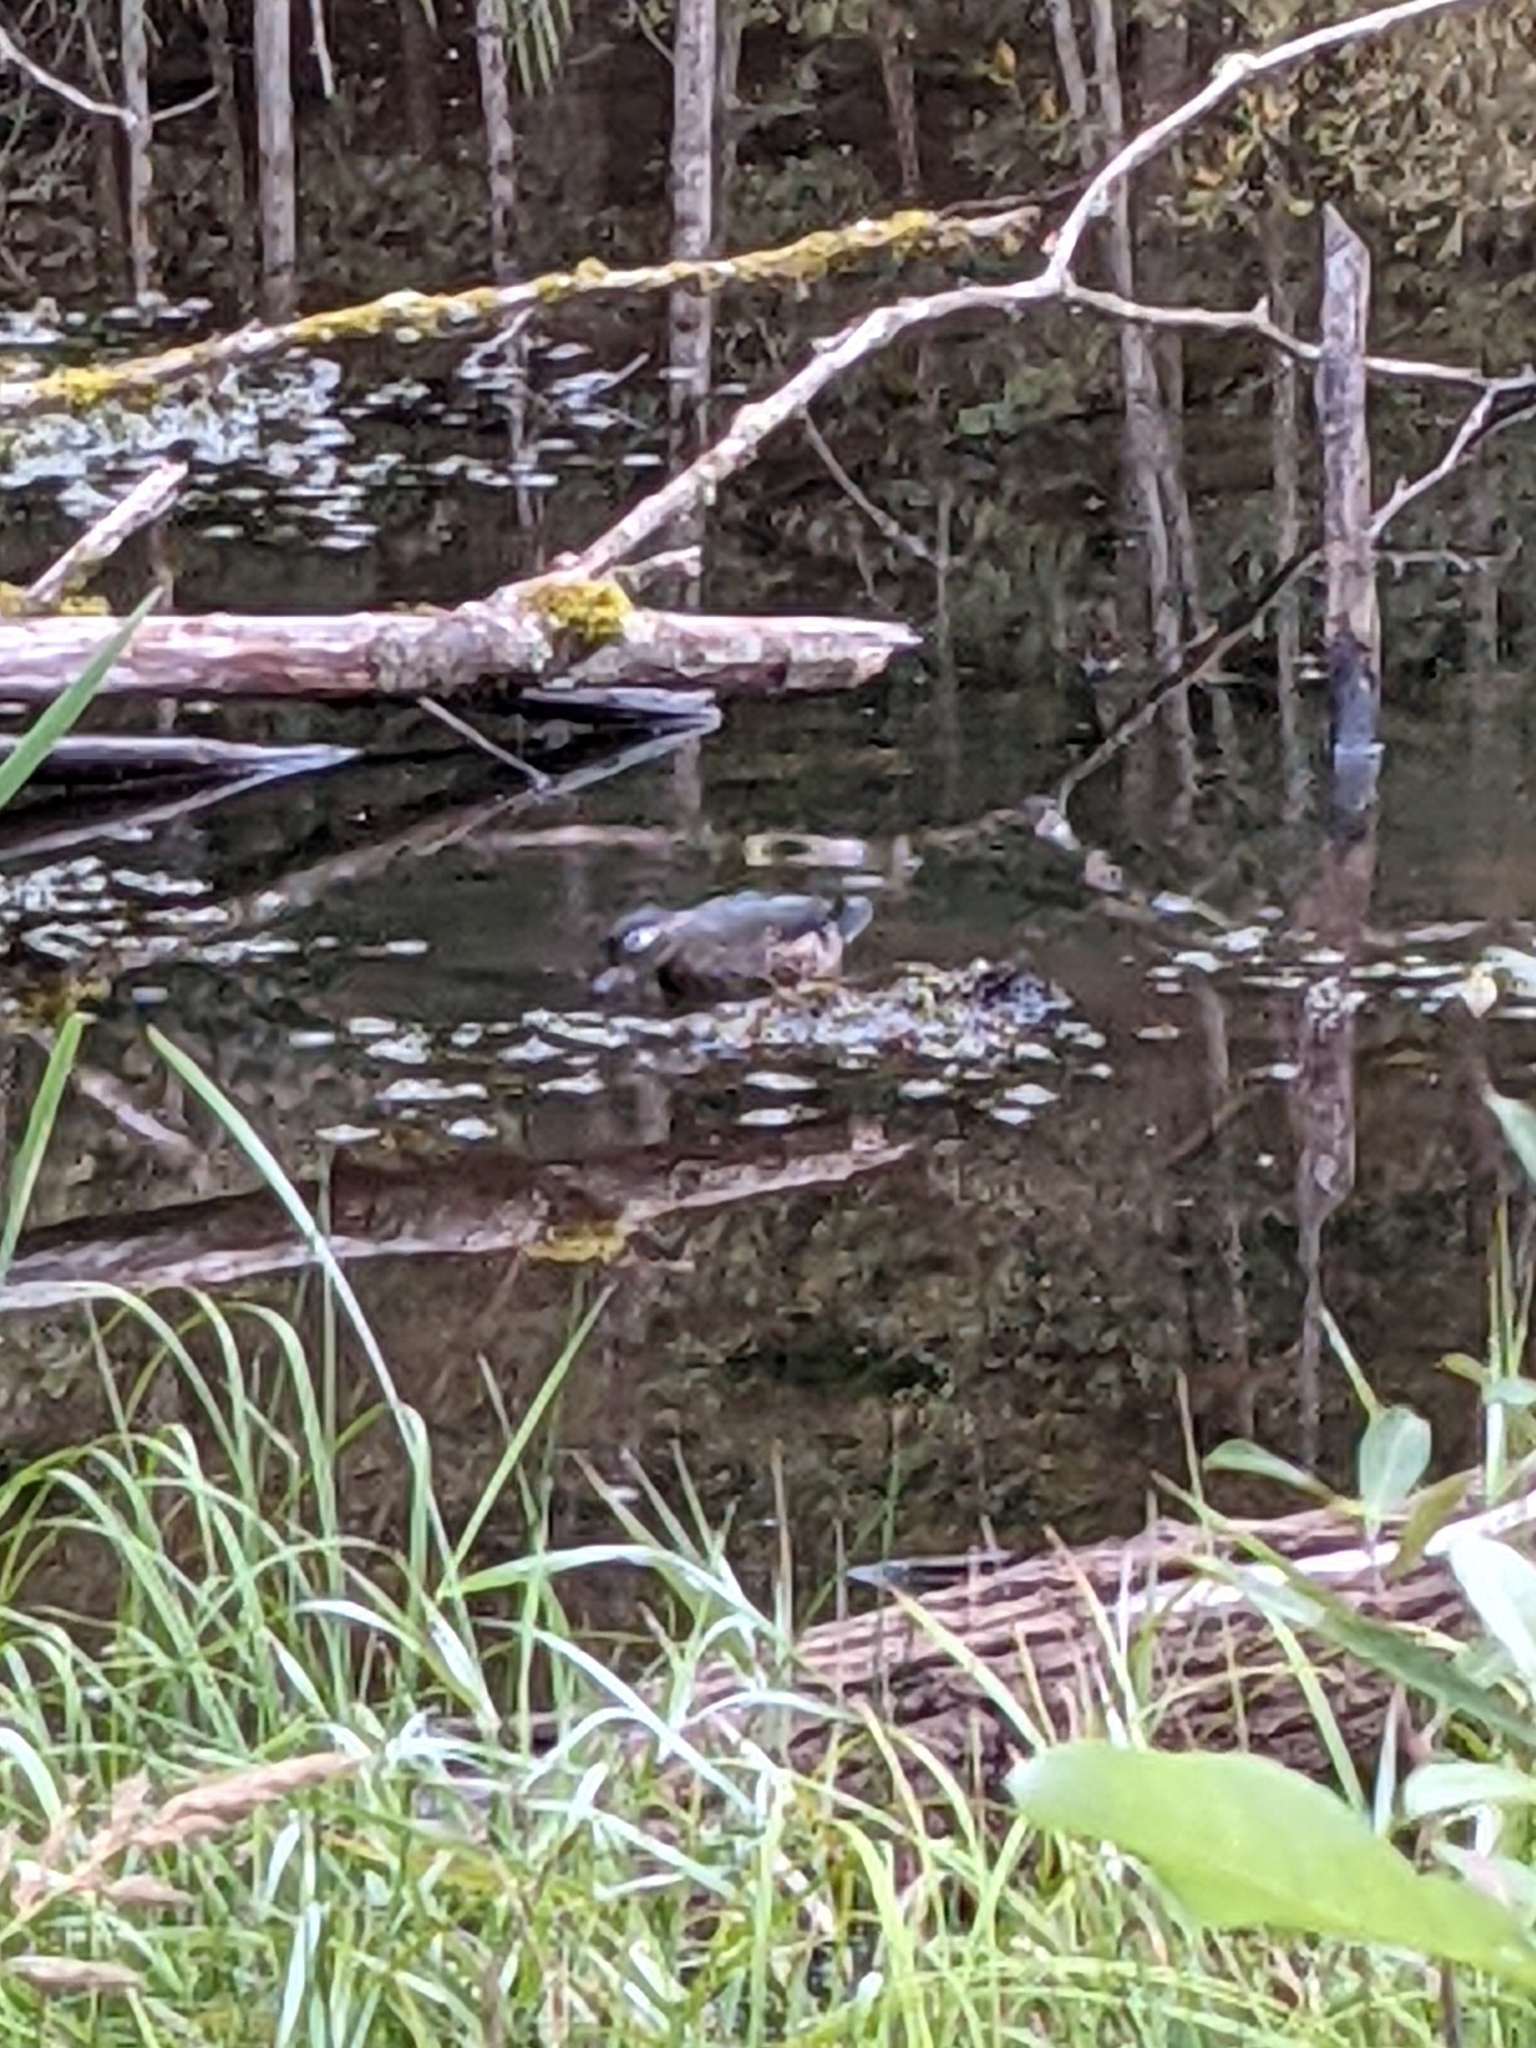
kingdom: Animalia
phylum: Chordata
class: Aves
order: Anseriformes
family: Anatidae
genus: Aix
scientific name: Aix sponsa
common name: Wood duck
